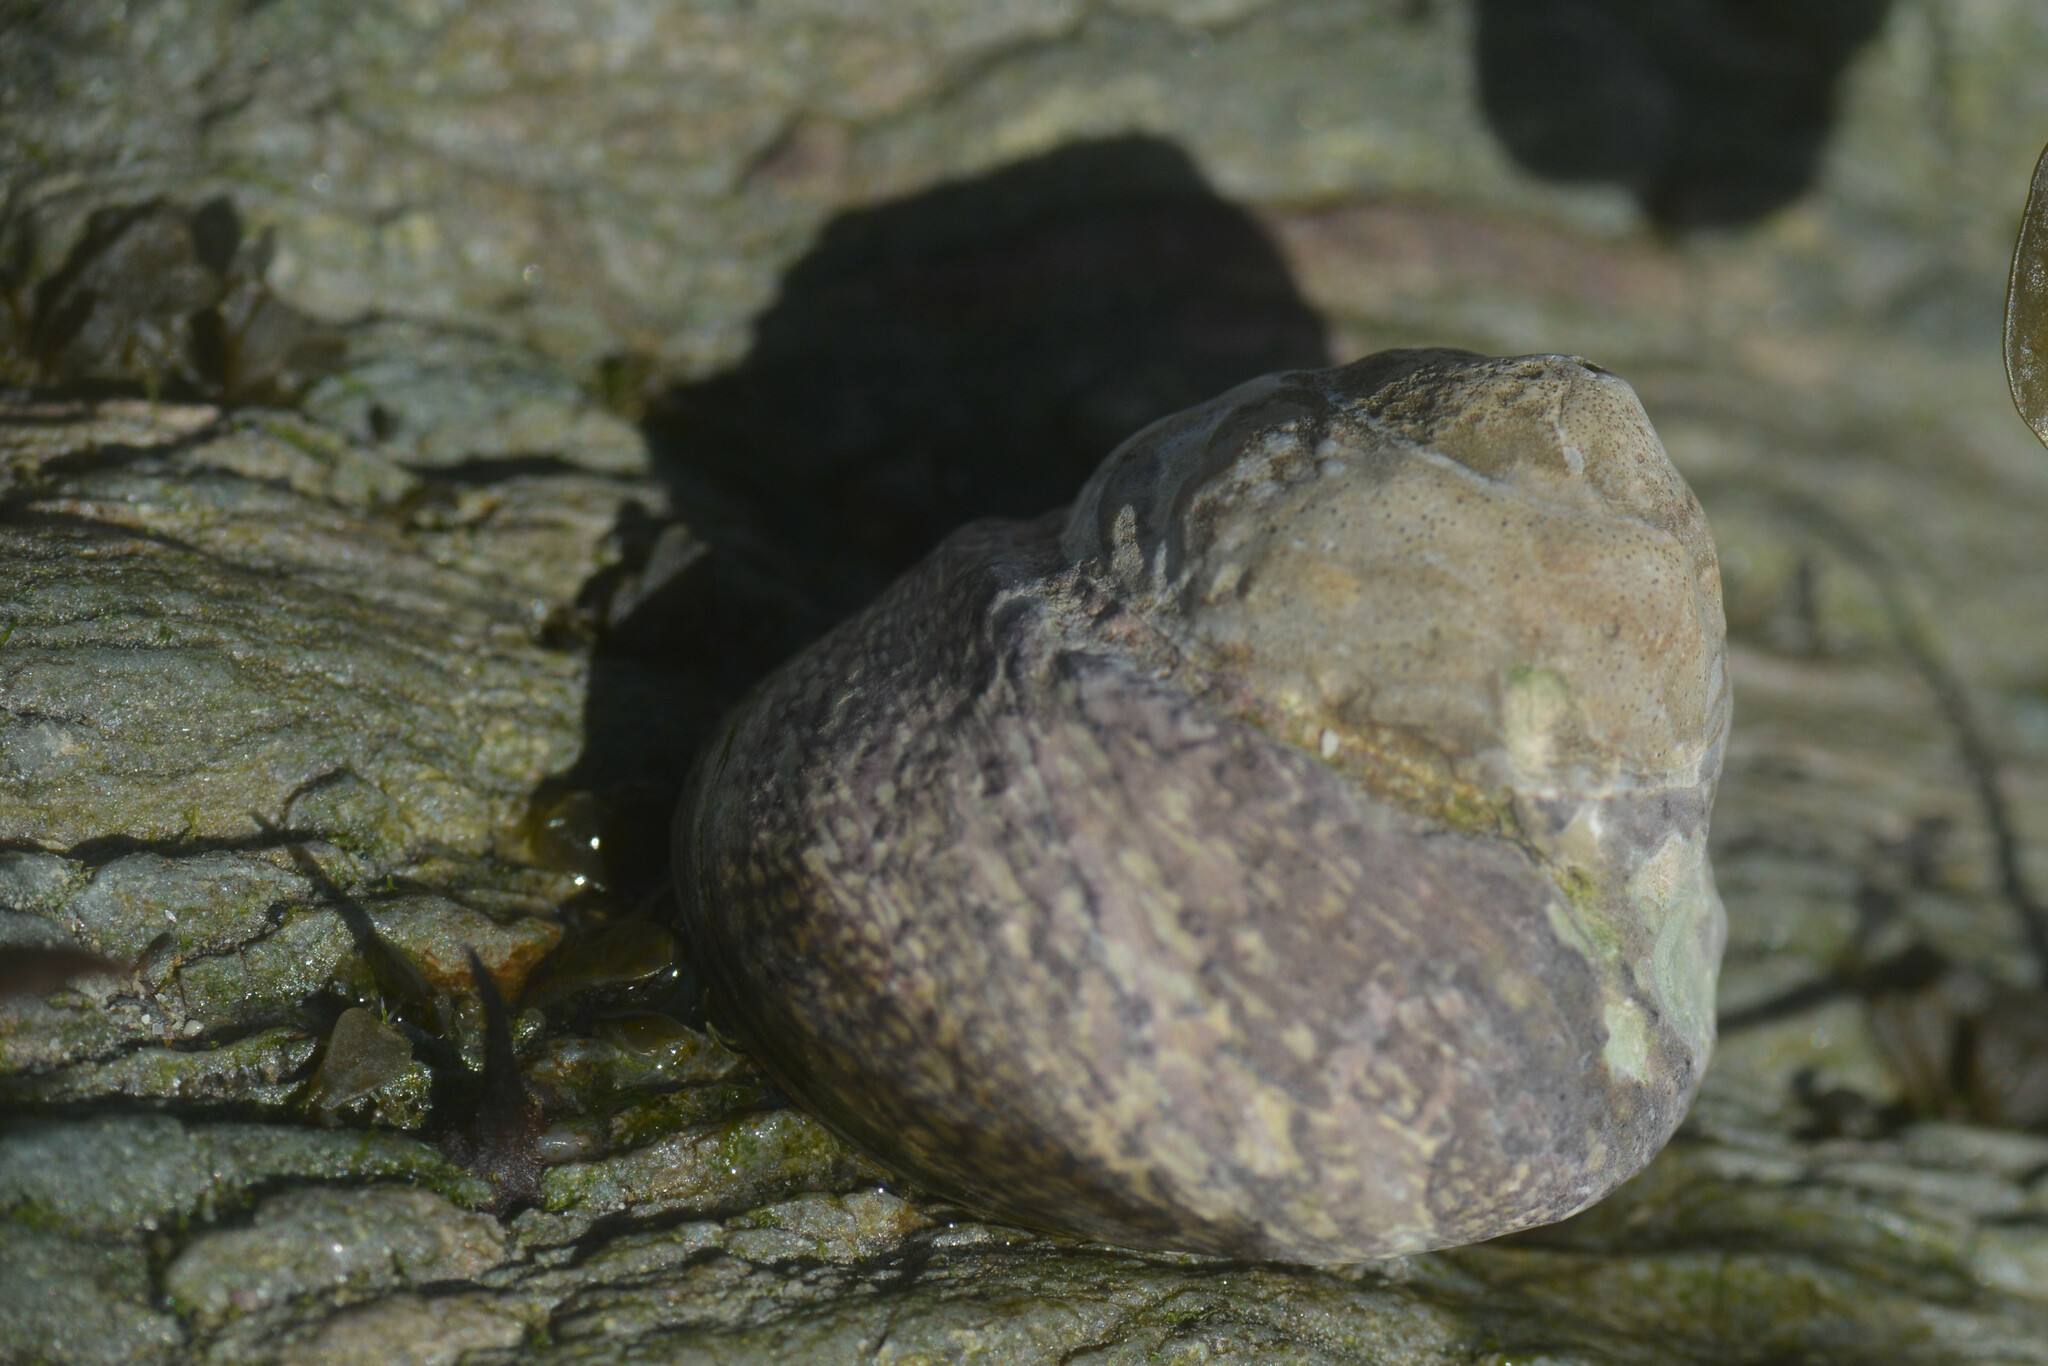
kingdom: Animalia
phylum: Mollusca
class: Gastropoda
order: Trochida
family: Trochidae
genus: Phorcus
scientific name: Phorcus lineatus
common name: Toothed top shell
